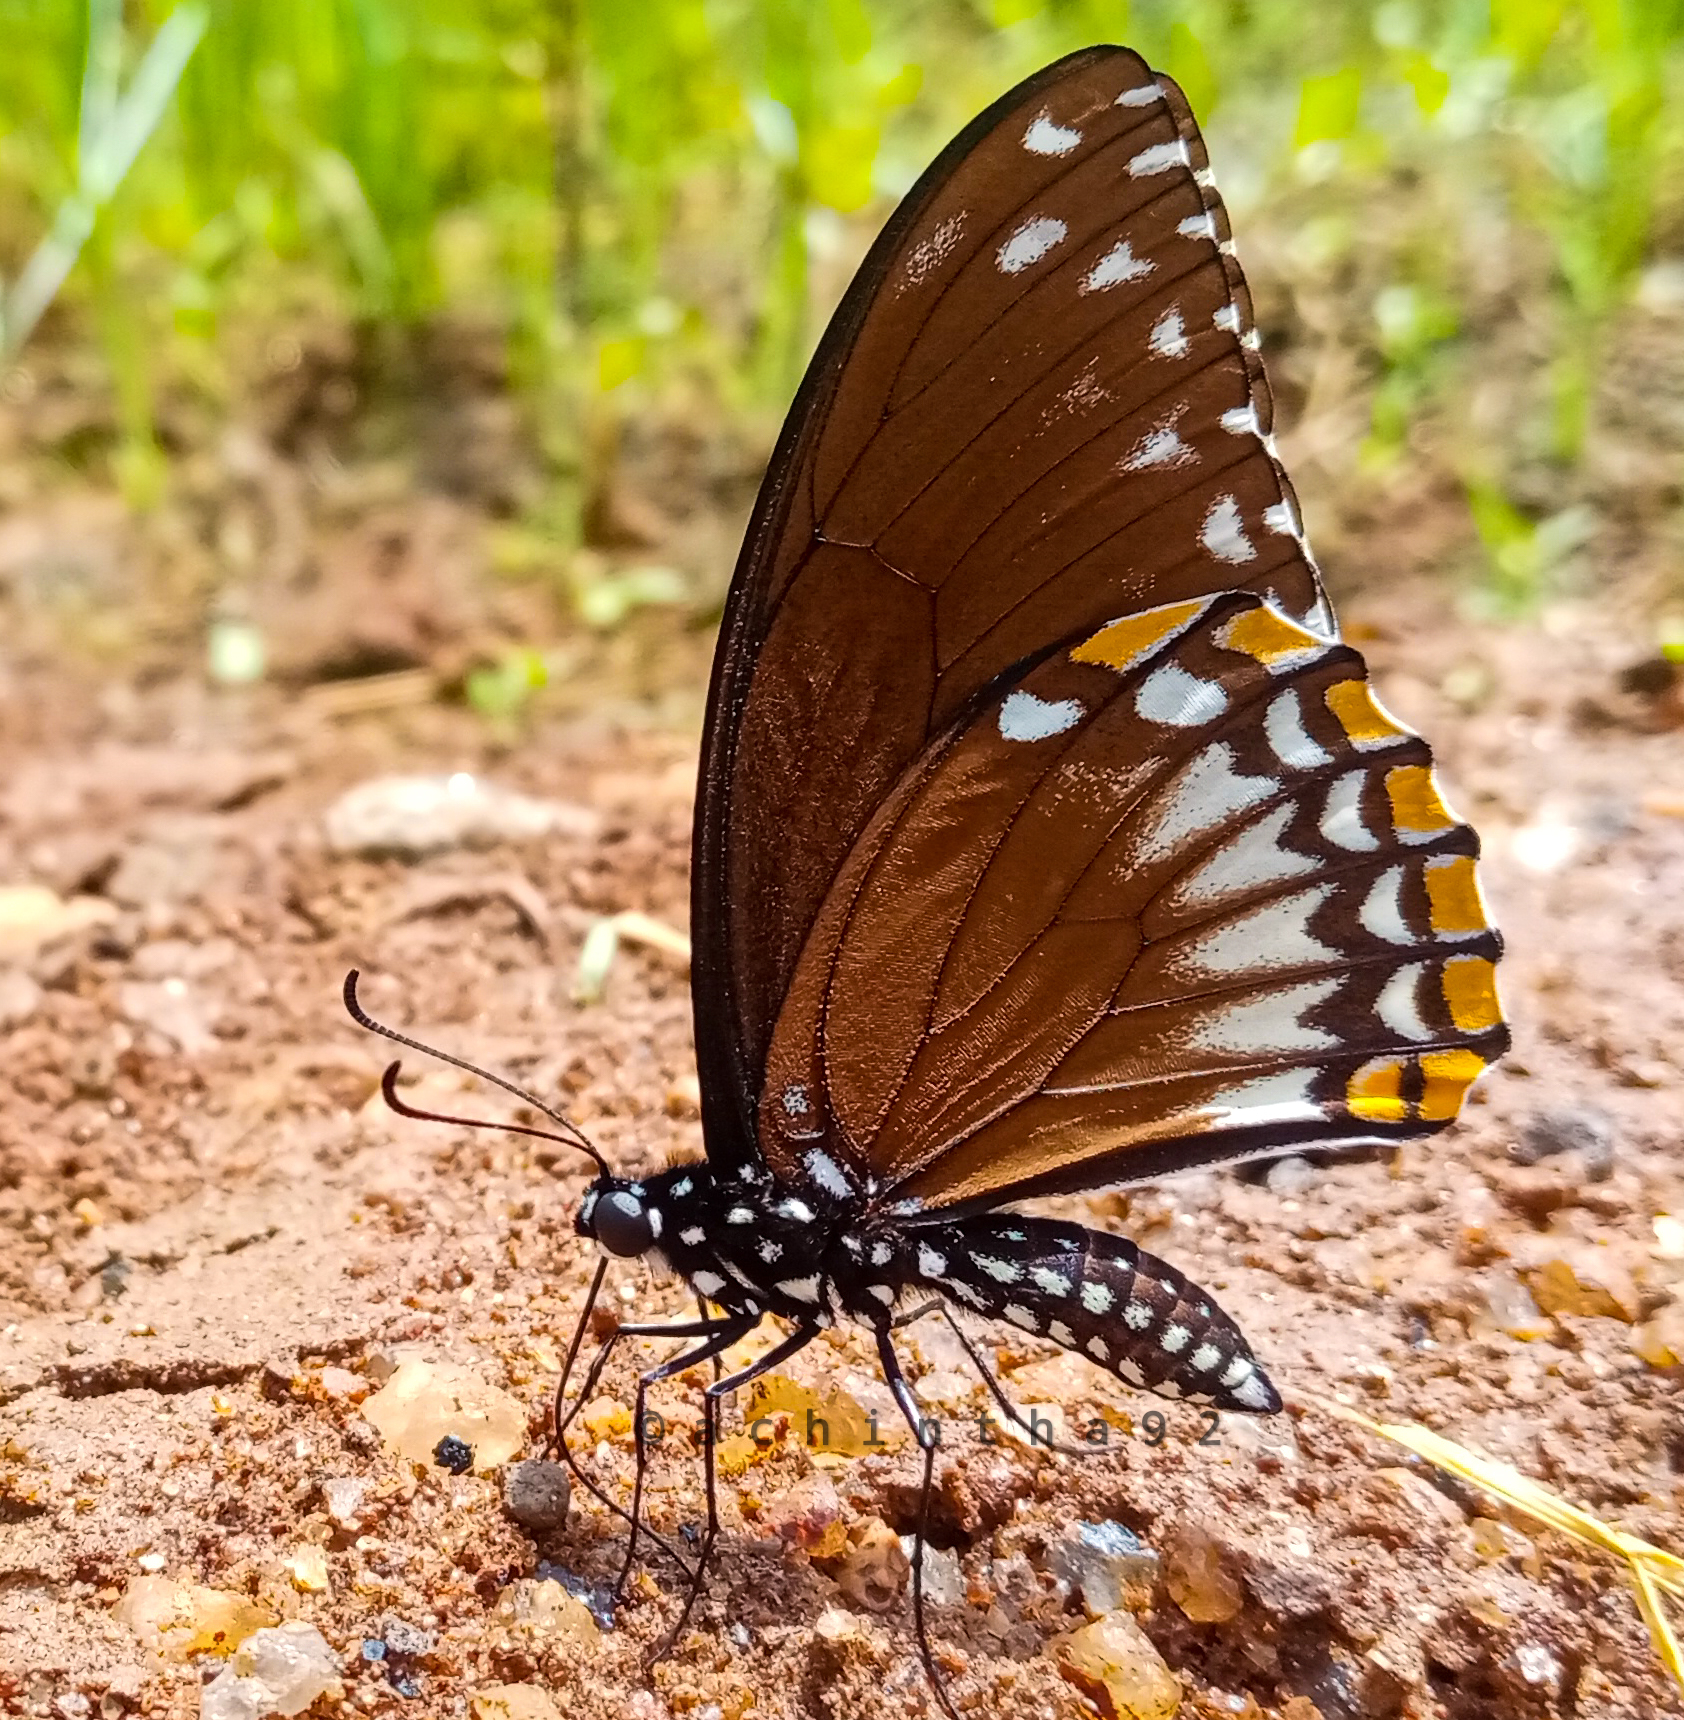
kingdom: Animalia
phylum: Arthropoda
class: Insecta
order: Lepidoptera
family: Papilionidae
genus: Chilasa
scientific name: Chilasa clytia
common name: Common mime
